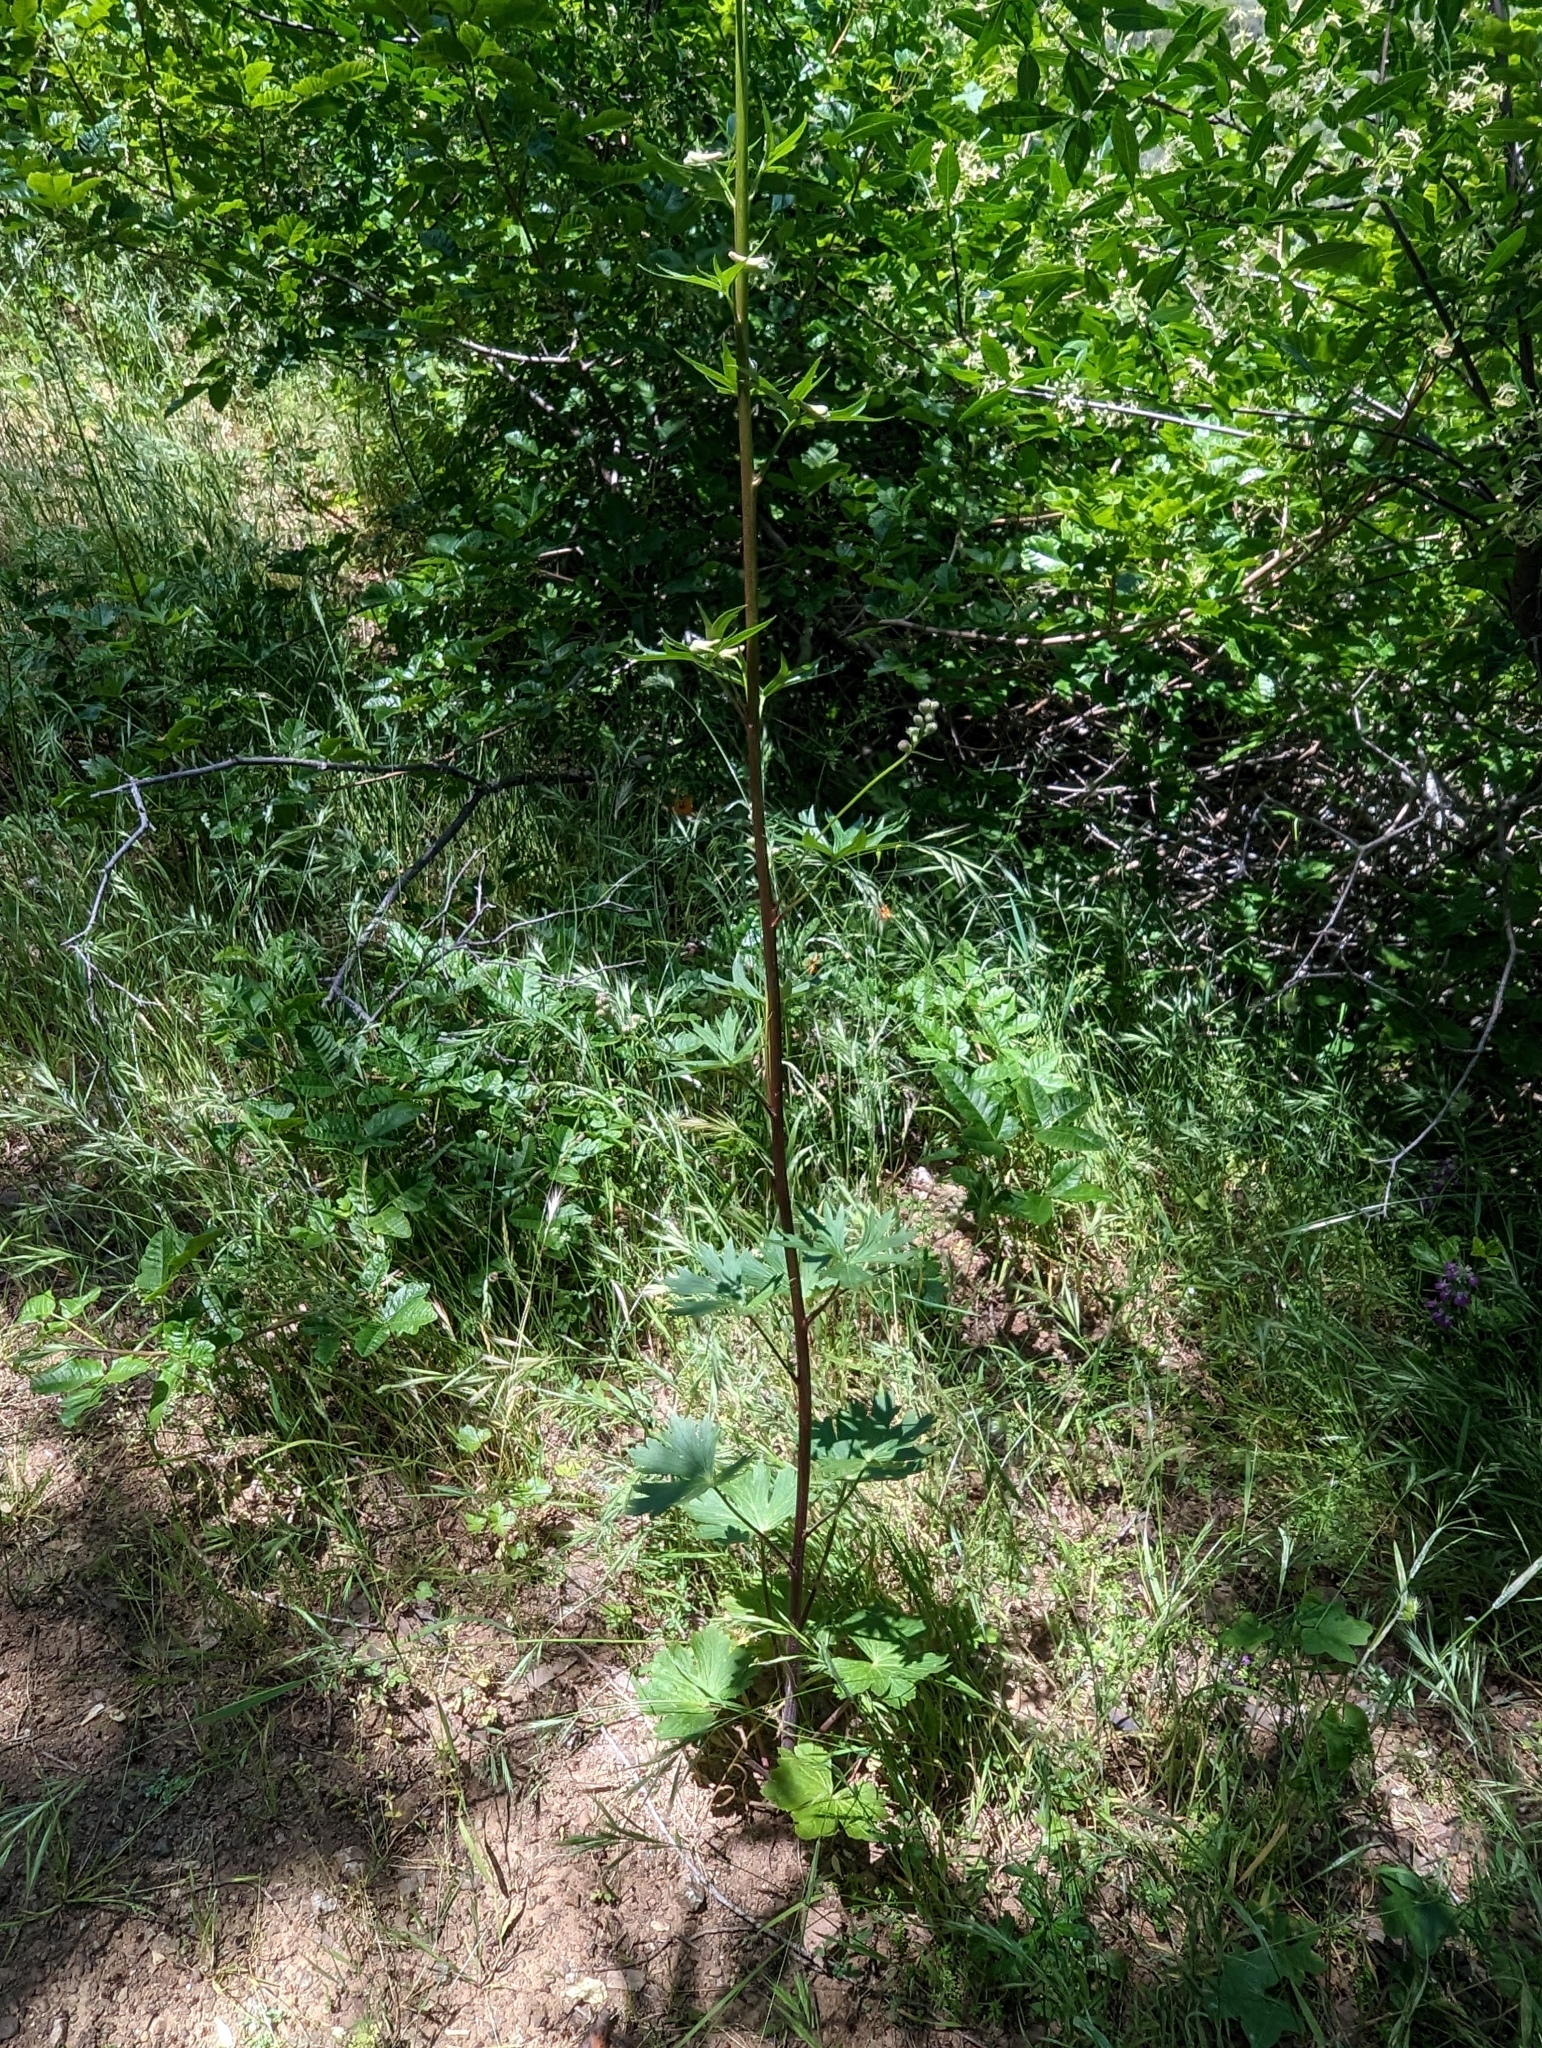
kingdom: Plantae
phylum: Tracheophyta
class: Magnoliopsida
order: Ranunculales
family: Ranunculaceae
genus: Delphinium
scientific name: Delphinium californicum
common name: California larkspur
